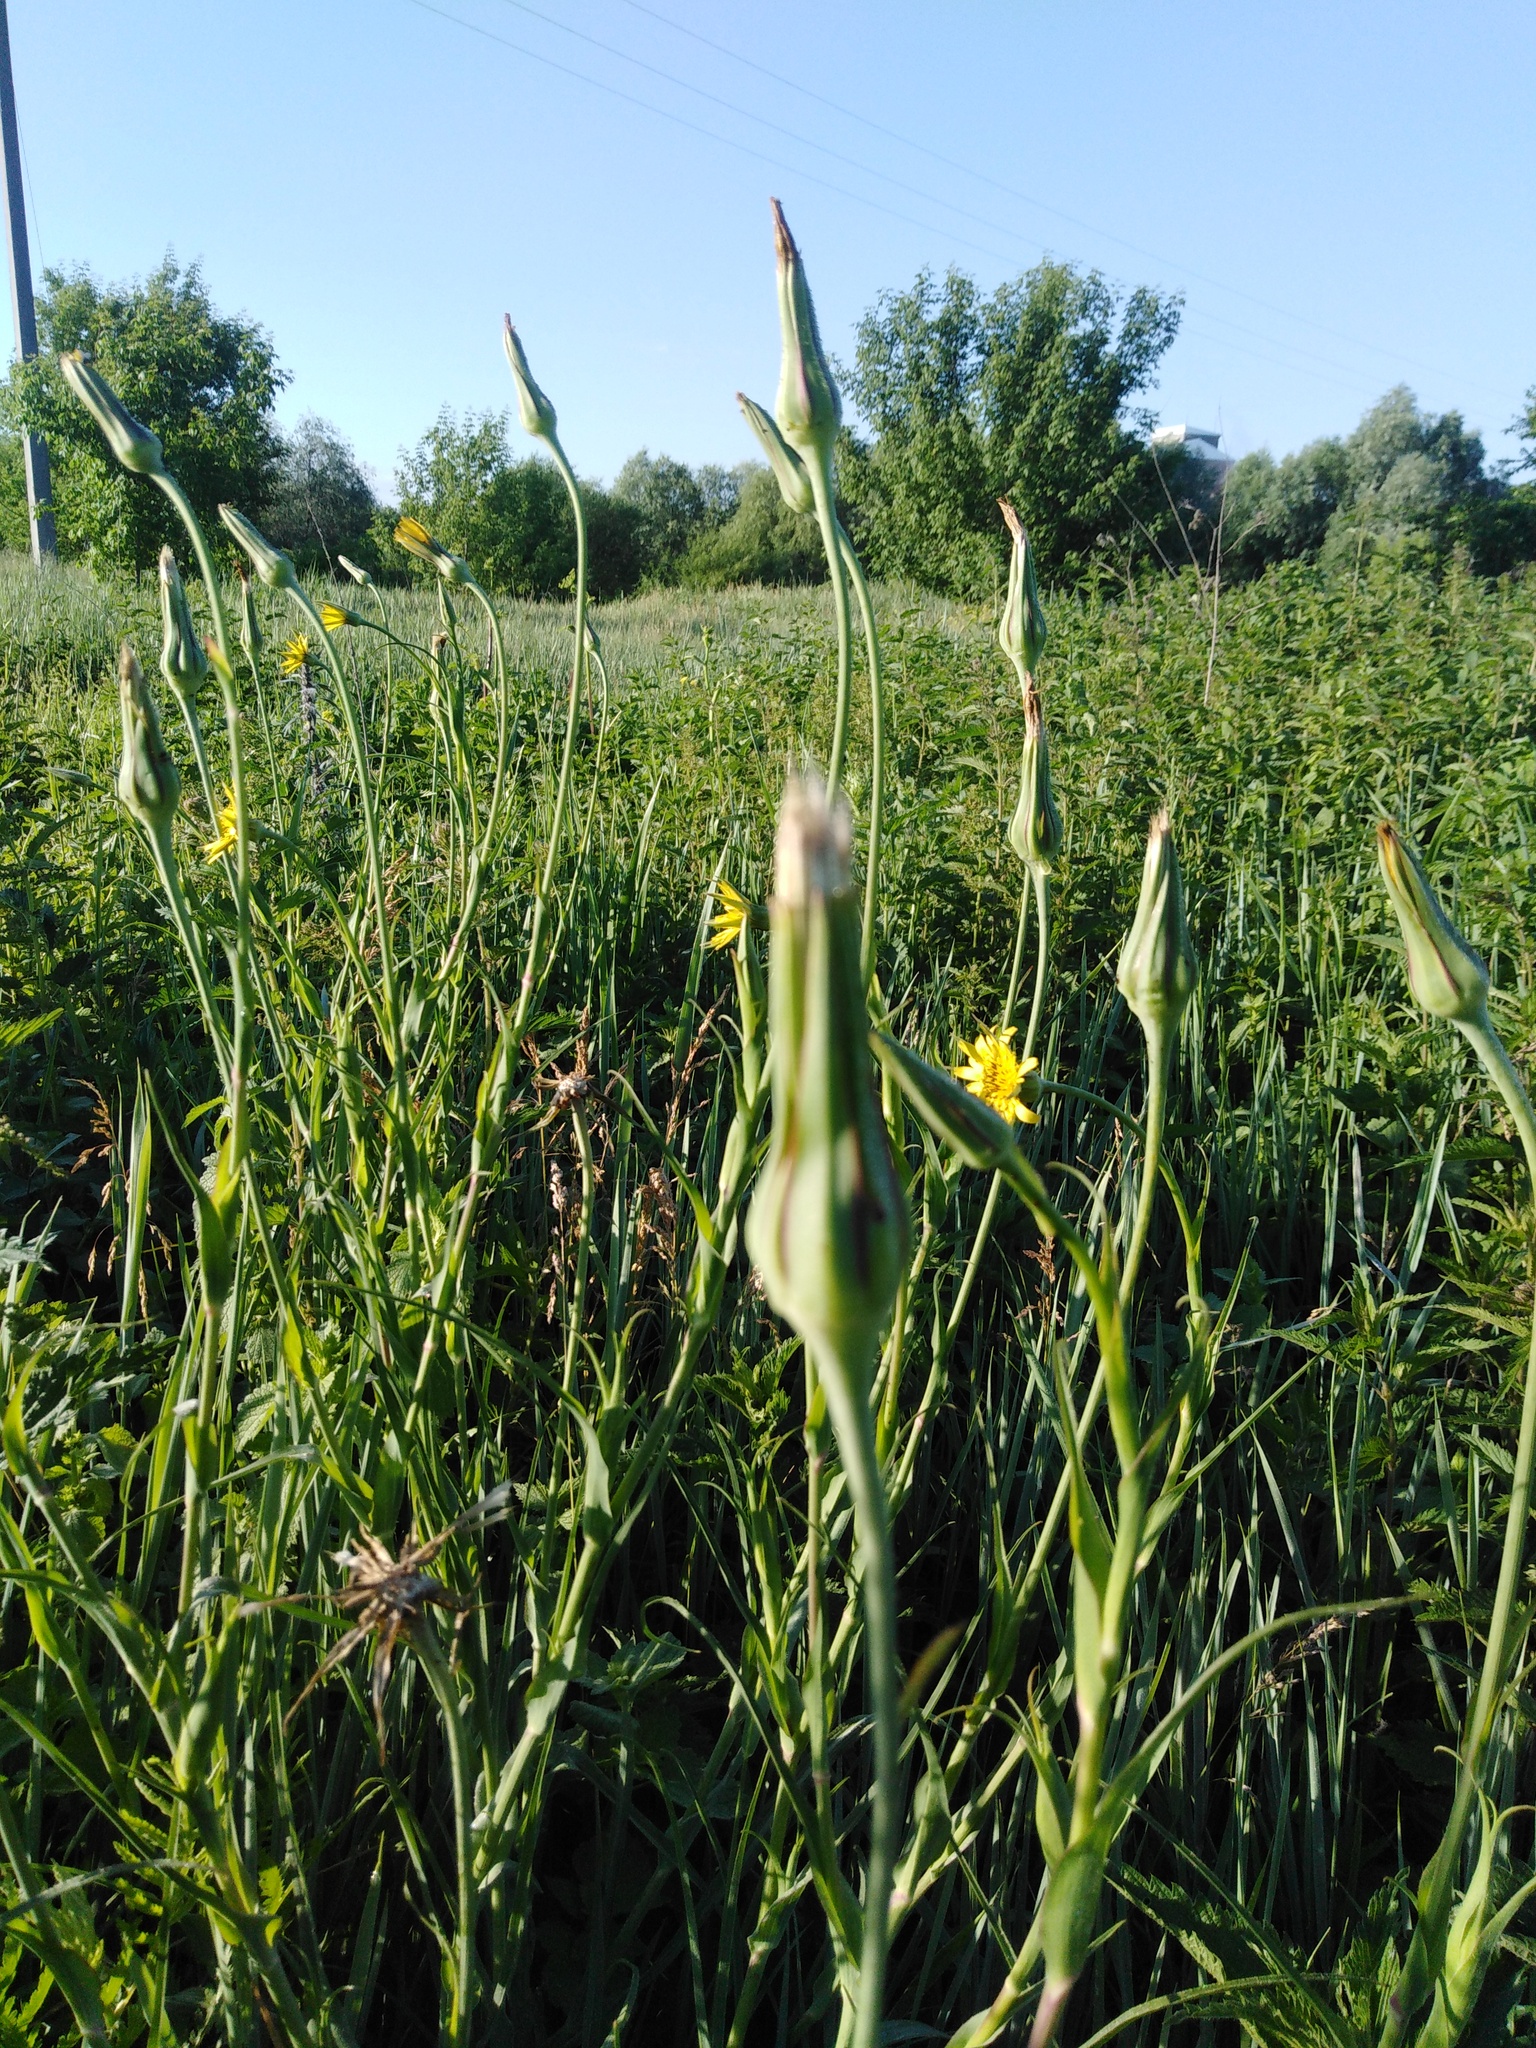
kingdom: Plantae
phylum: Tracheophyta
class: Magnoliopsida
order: Asterales
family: Asteraceae
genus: Tragopogon
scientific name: Tragopogon dubius
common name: Yellow salsify
